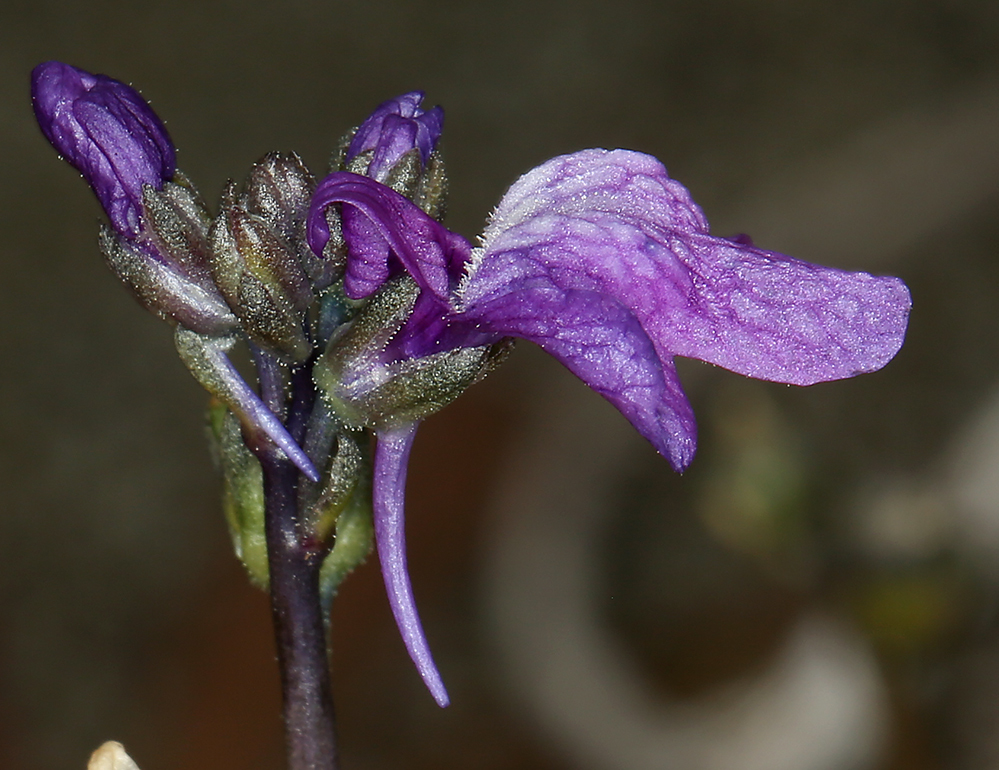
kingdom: Plantae
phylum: Tracheophyta
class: Magnoliopsida
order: Lamiales
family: Plantaginaceae
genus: Nuttallanthus
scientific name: Nuttallanthus texanus
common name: Texas toadflax
